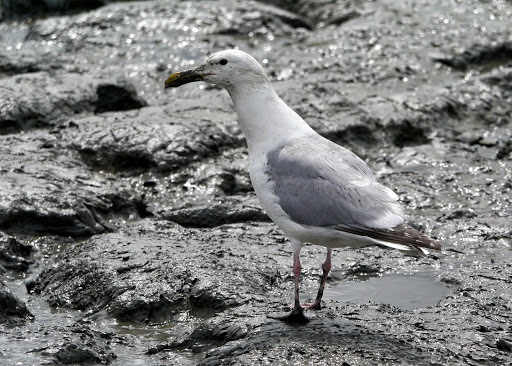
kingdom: Animalia
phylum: Chordata
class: Aves
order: Charadriiformes
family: Laridae
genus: Larus
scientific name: Larus argentatus
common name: Herring gull
